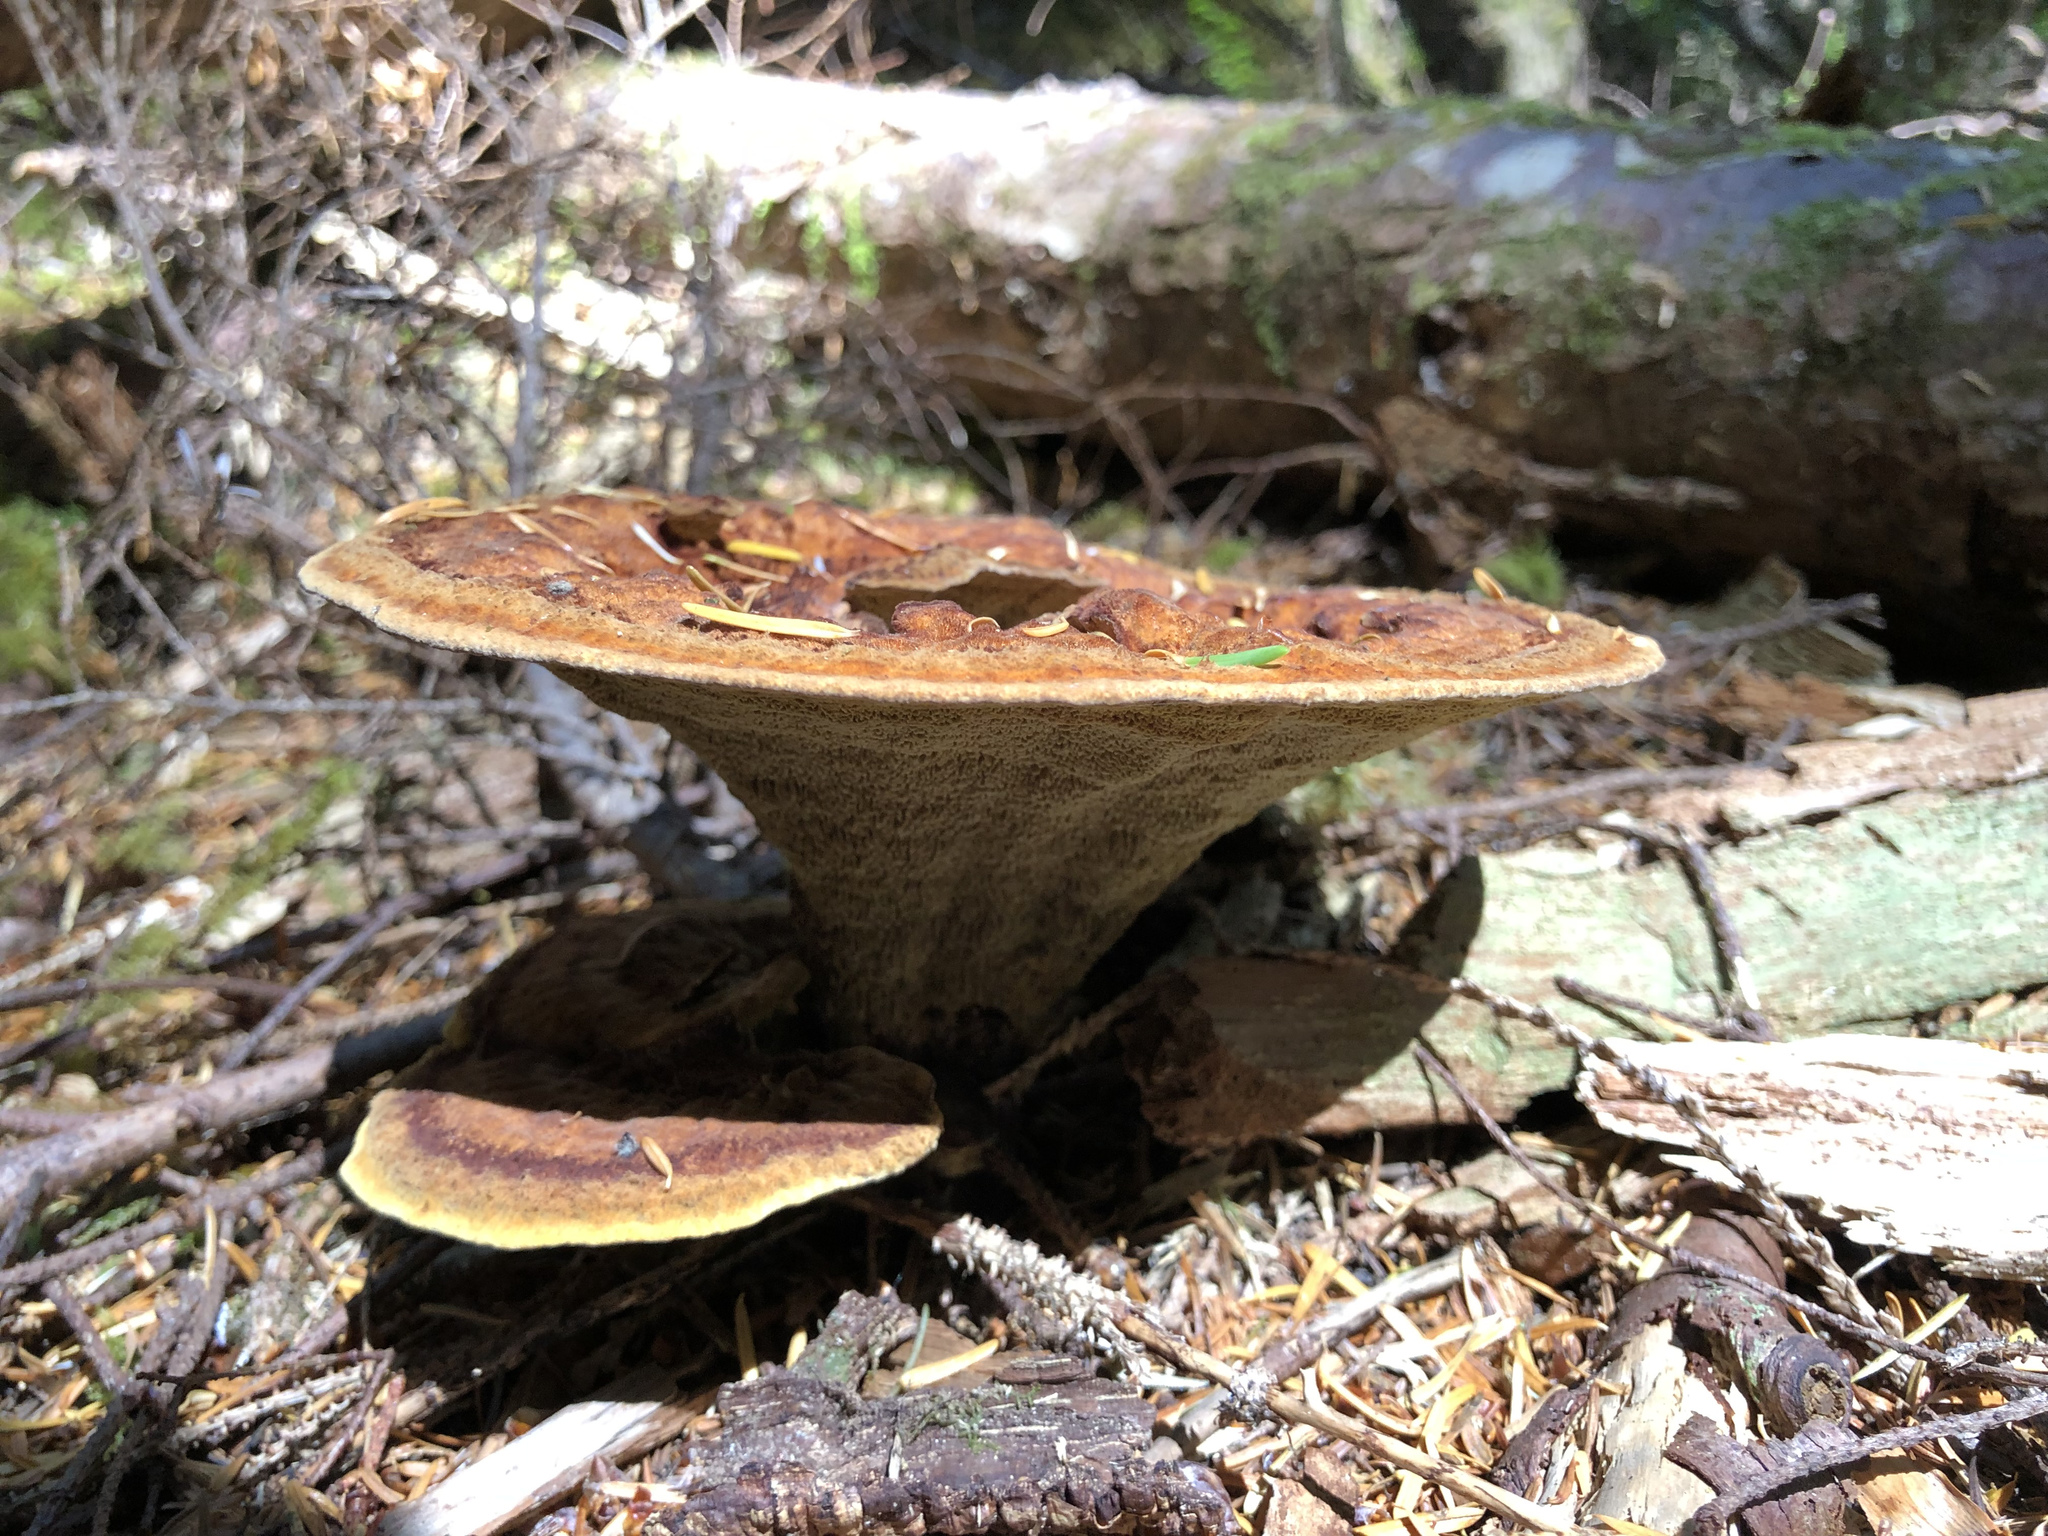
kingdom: Fungi
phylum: Basidiomycota
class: Agaricomycetes
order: Polyporales
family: Laetiporaceae
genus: Phaeolus
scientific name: Phaeolus schweinitzii
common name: Dyer's mazegill
